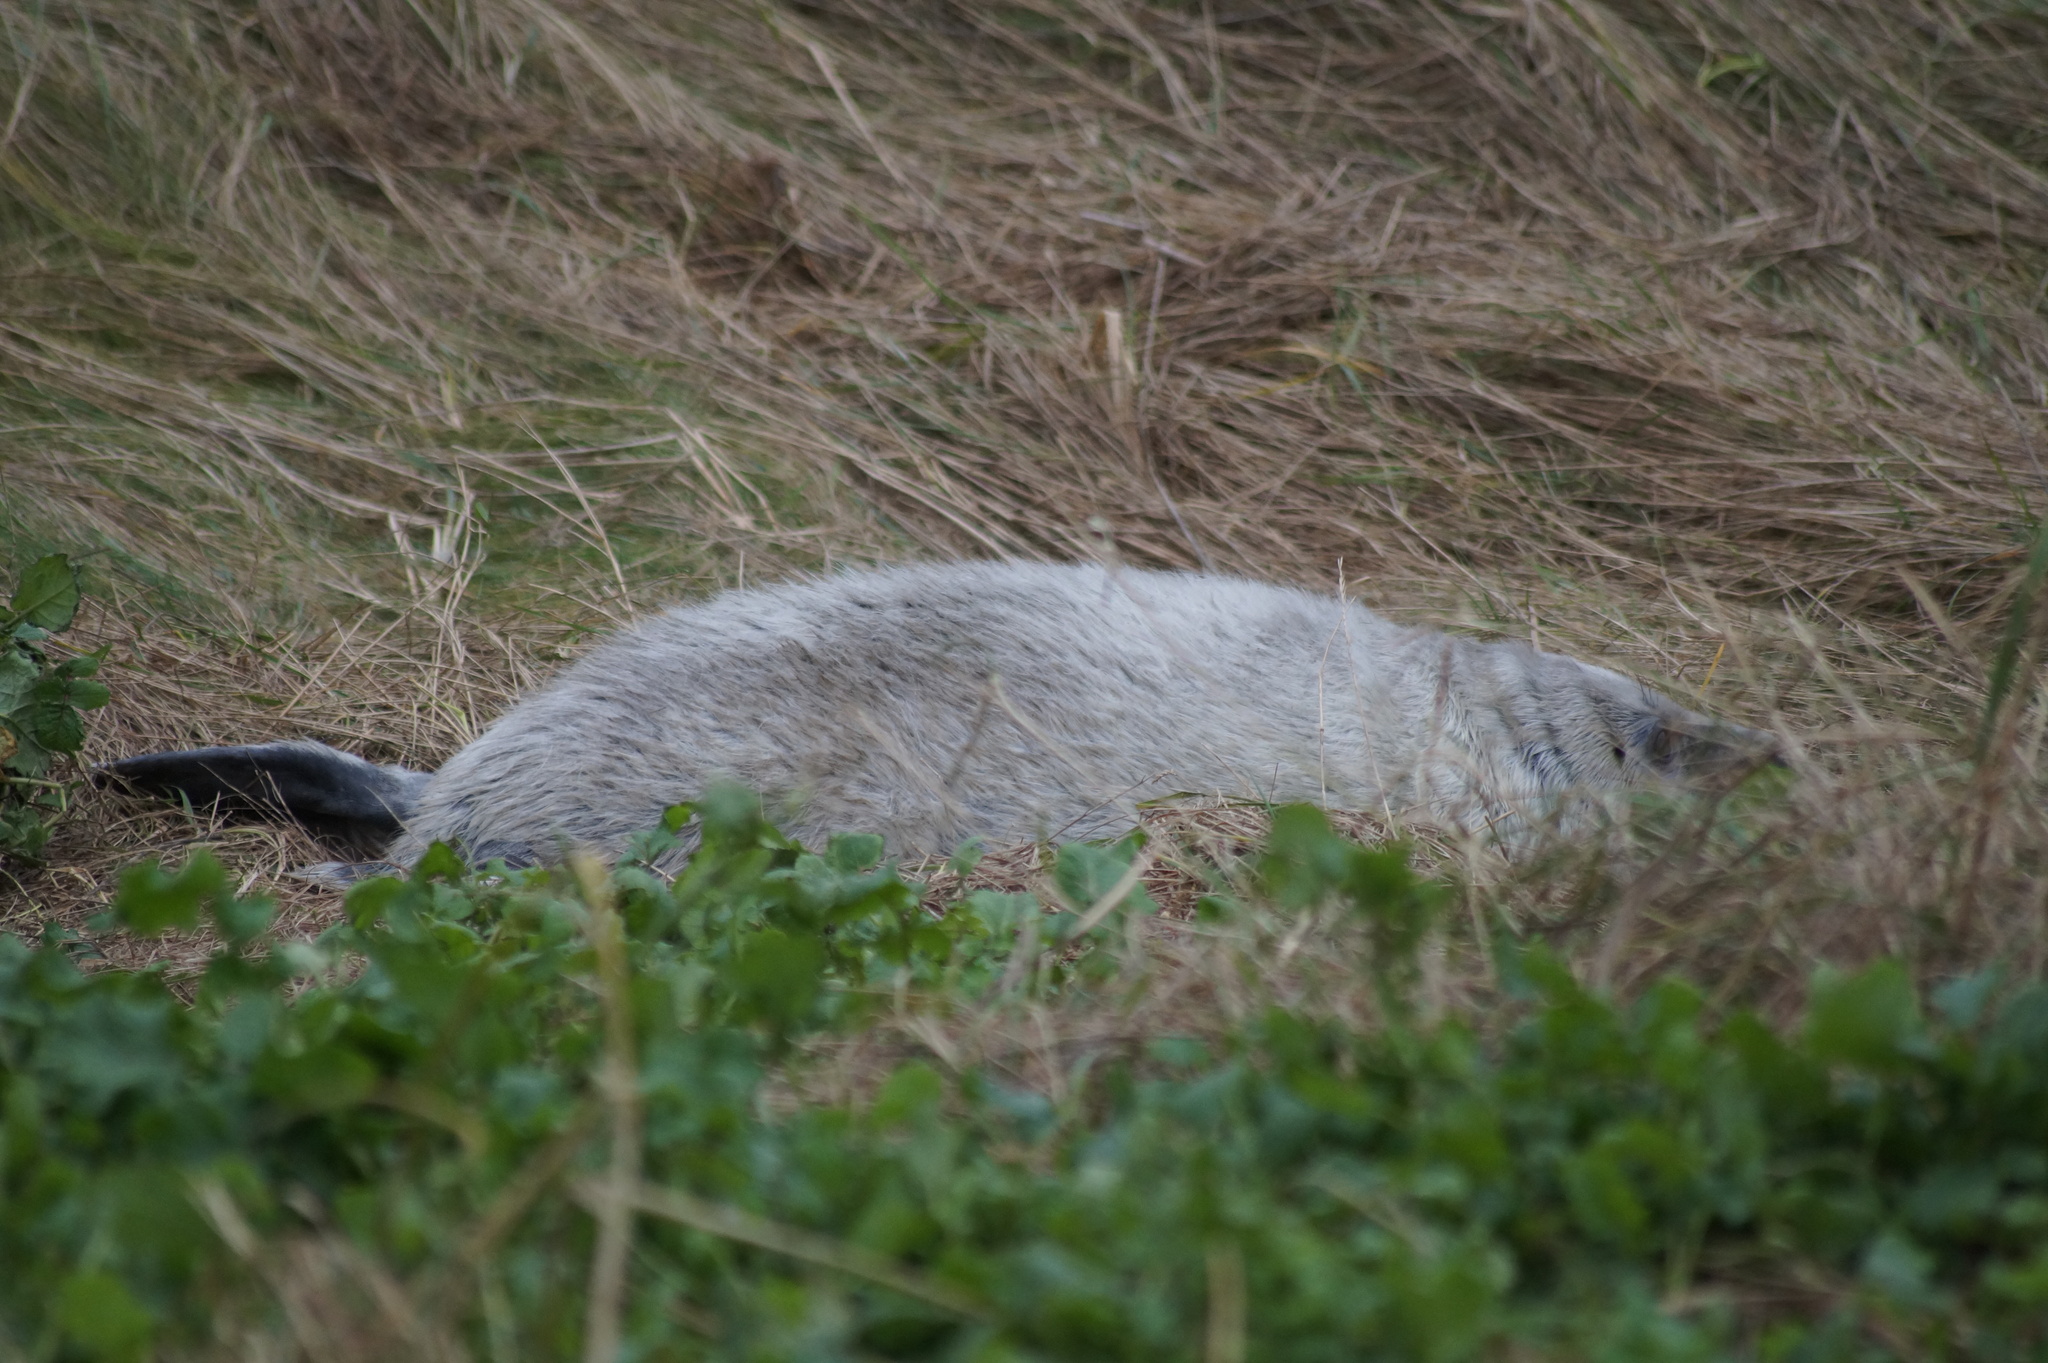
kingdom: Animalia
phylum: Chordata
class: Mammalia
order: Carnivora
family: Phocidae
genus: Halichoerus
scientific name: Halichoerus grypus
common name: Grey seal
